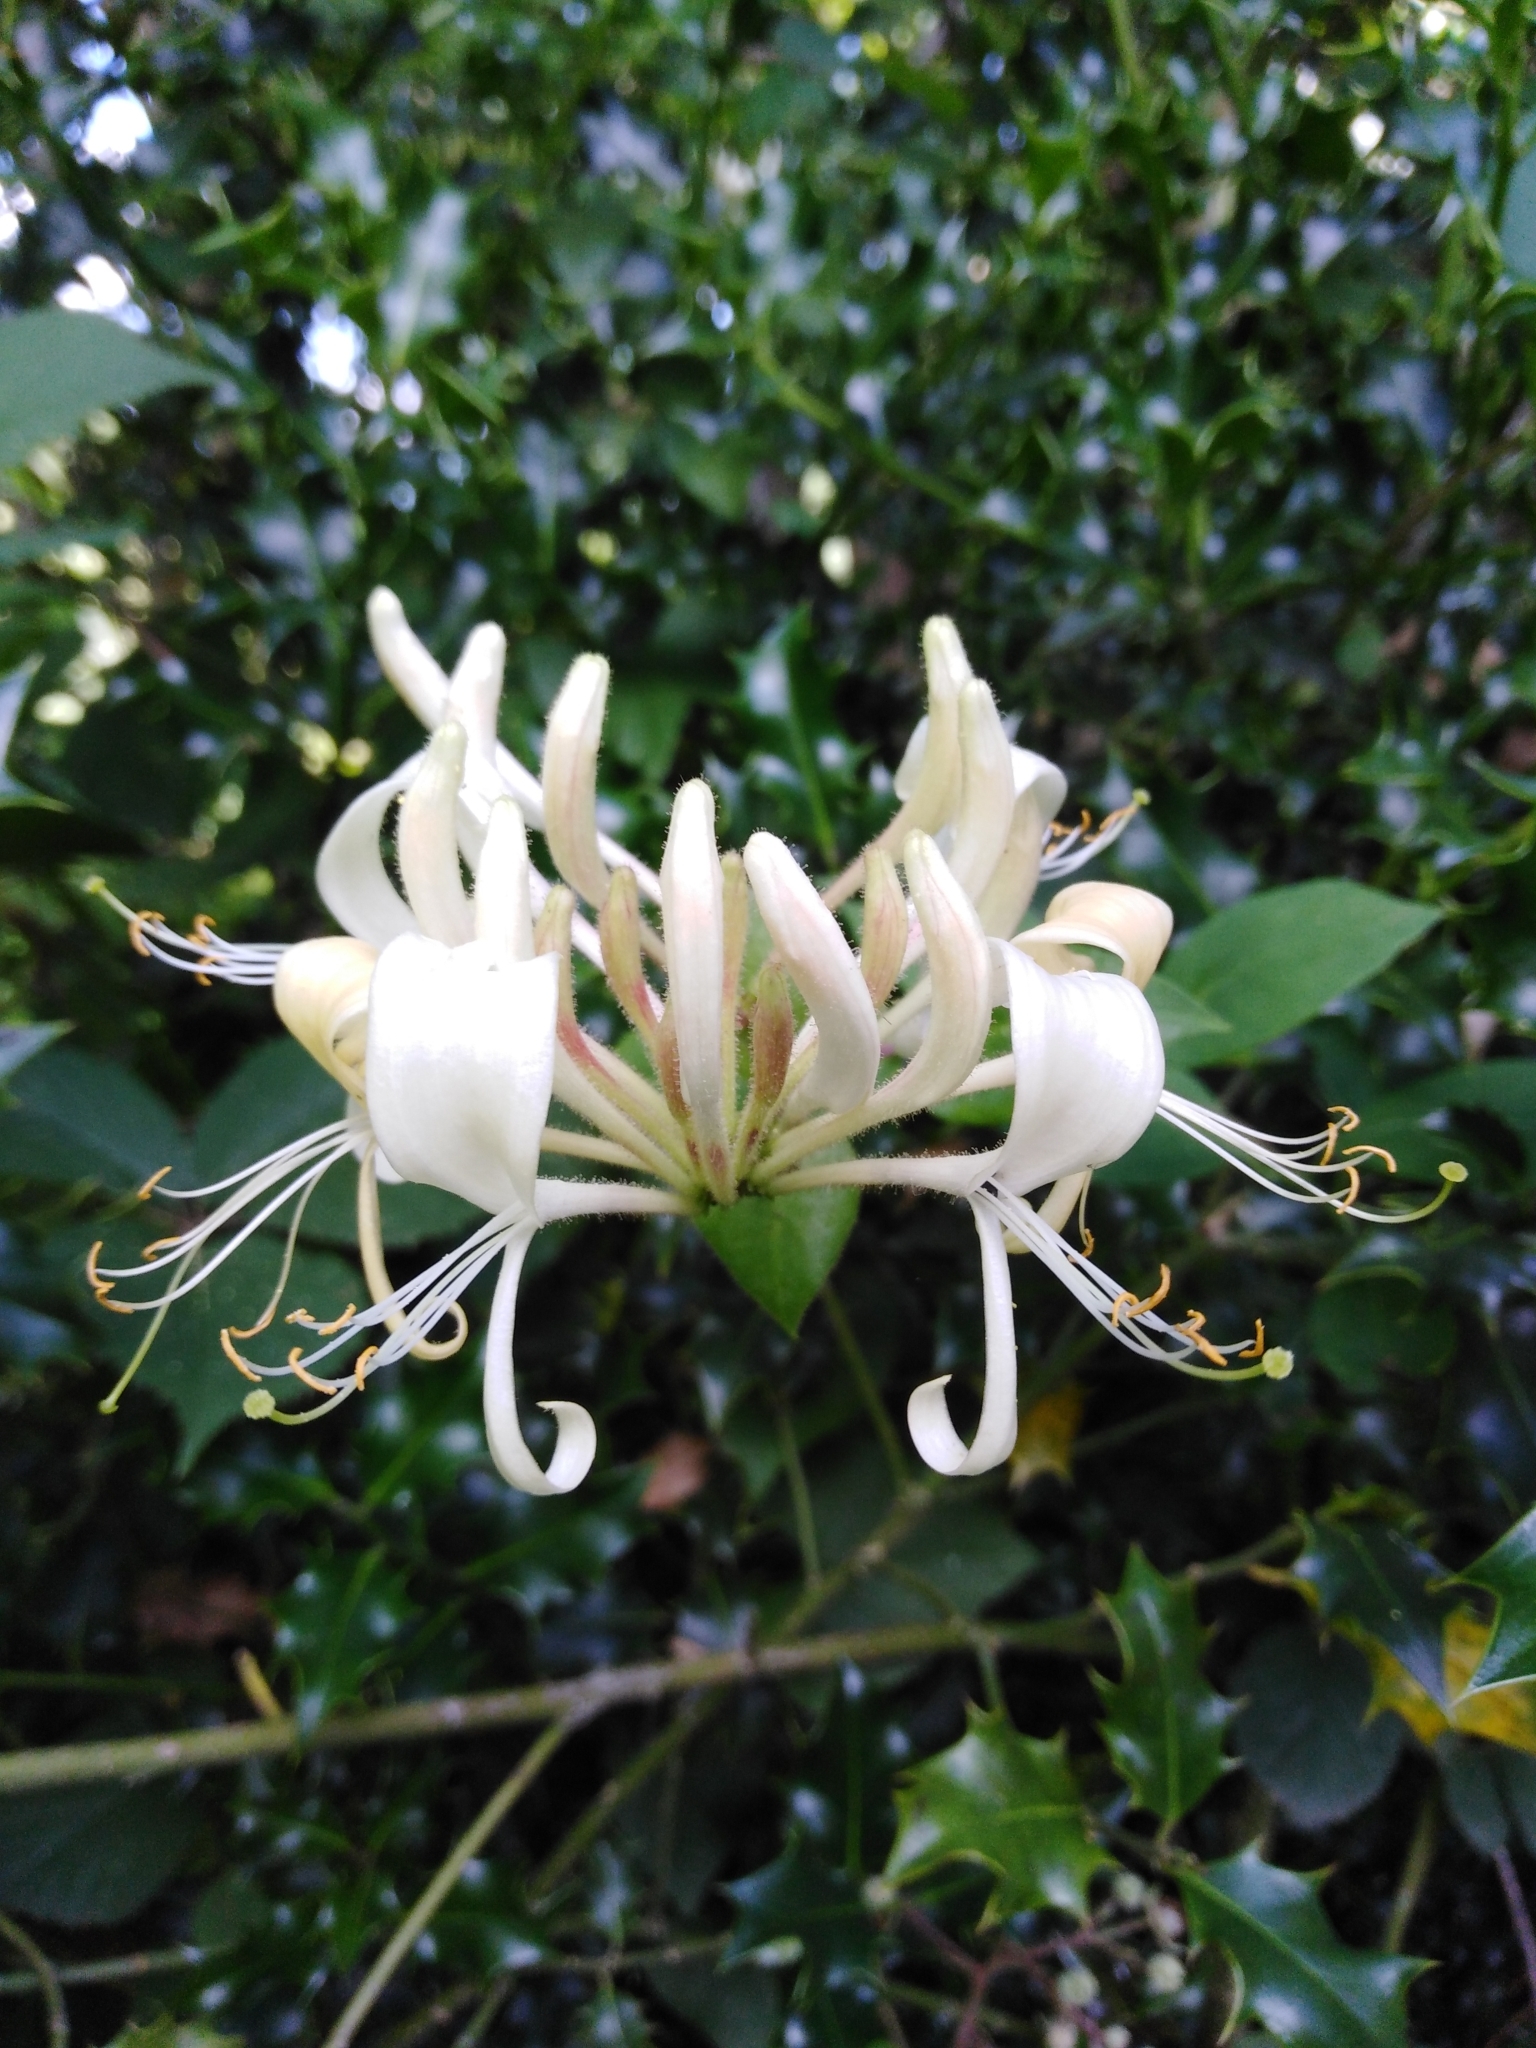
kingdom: Plantae
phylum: Tracheophyta
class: Magnoliopsida
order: Dipsacales
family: Caprifoliaceae
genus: Lonicera
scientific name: Lonicera periclymenum
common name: European honeysuckle
